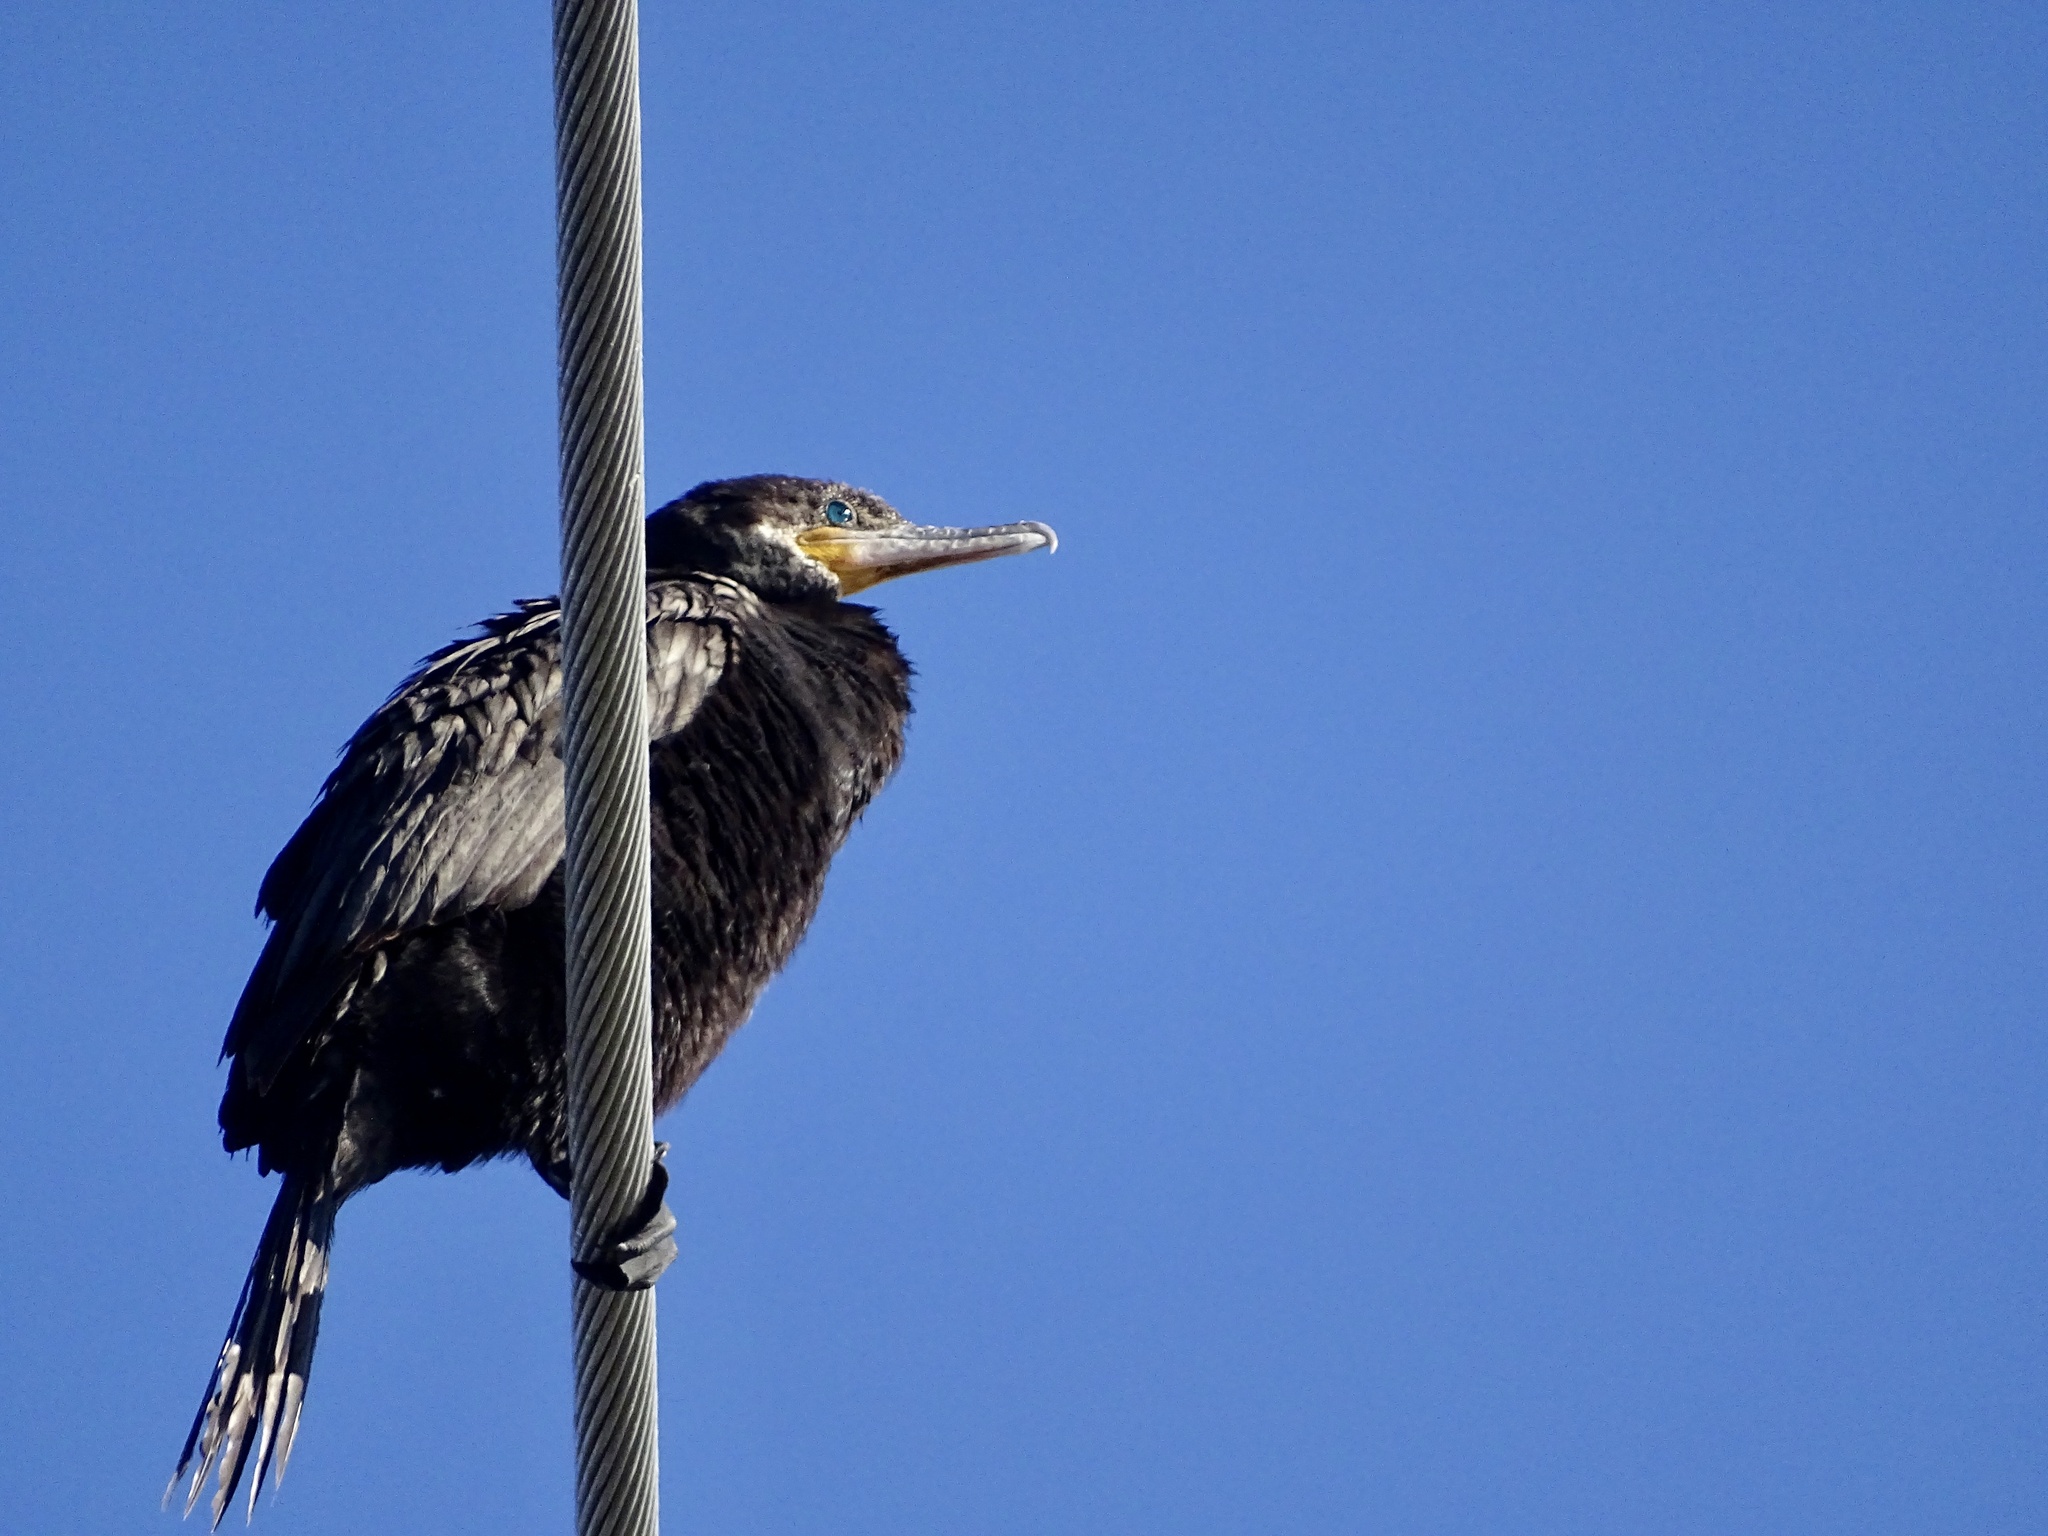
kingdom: Animalia
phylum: Chordata
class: Aves
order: Suliformes
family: Phalacrocoracidae
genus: Phalacrocorax
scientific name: Phalacrocorax brasilianus
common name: Neotropic cormorant
